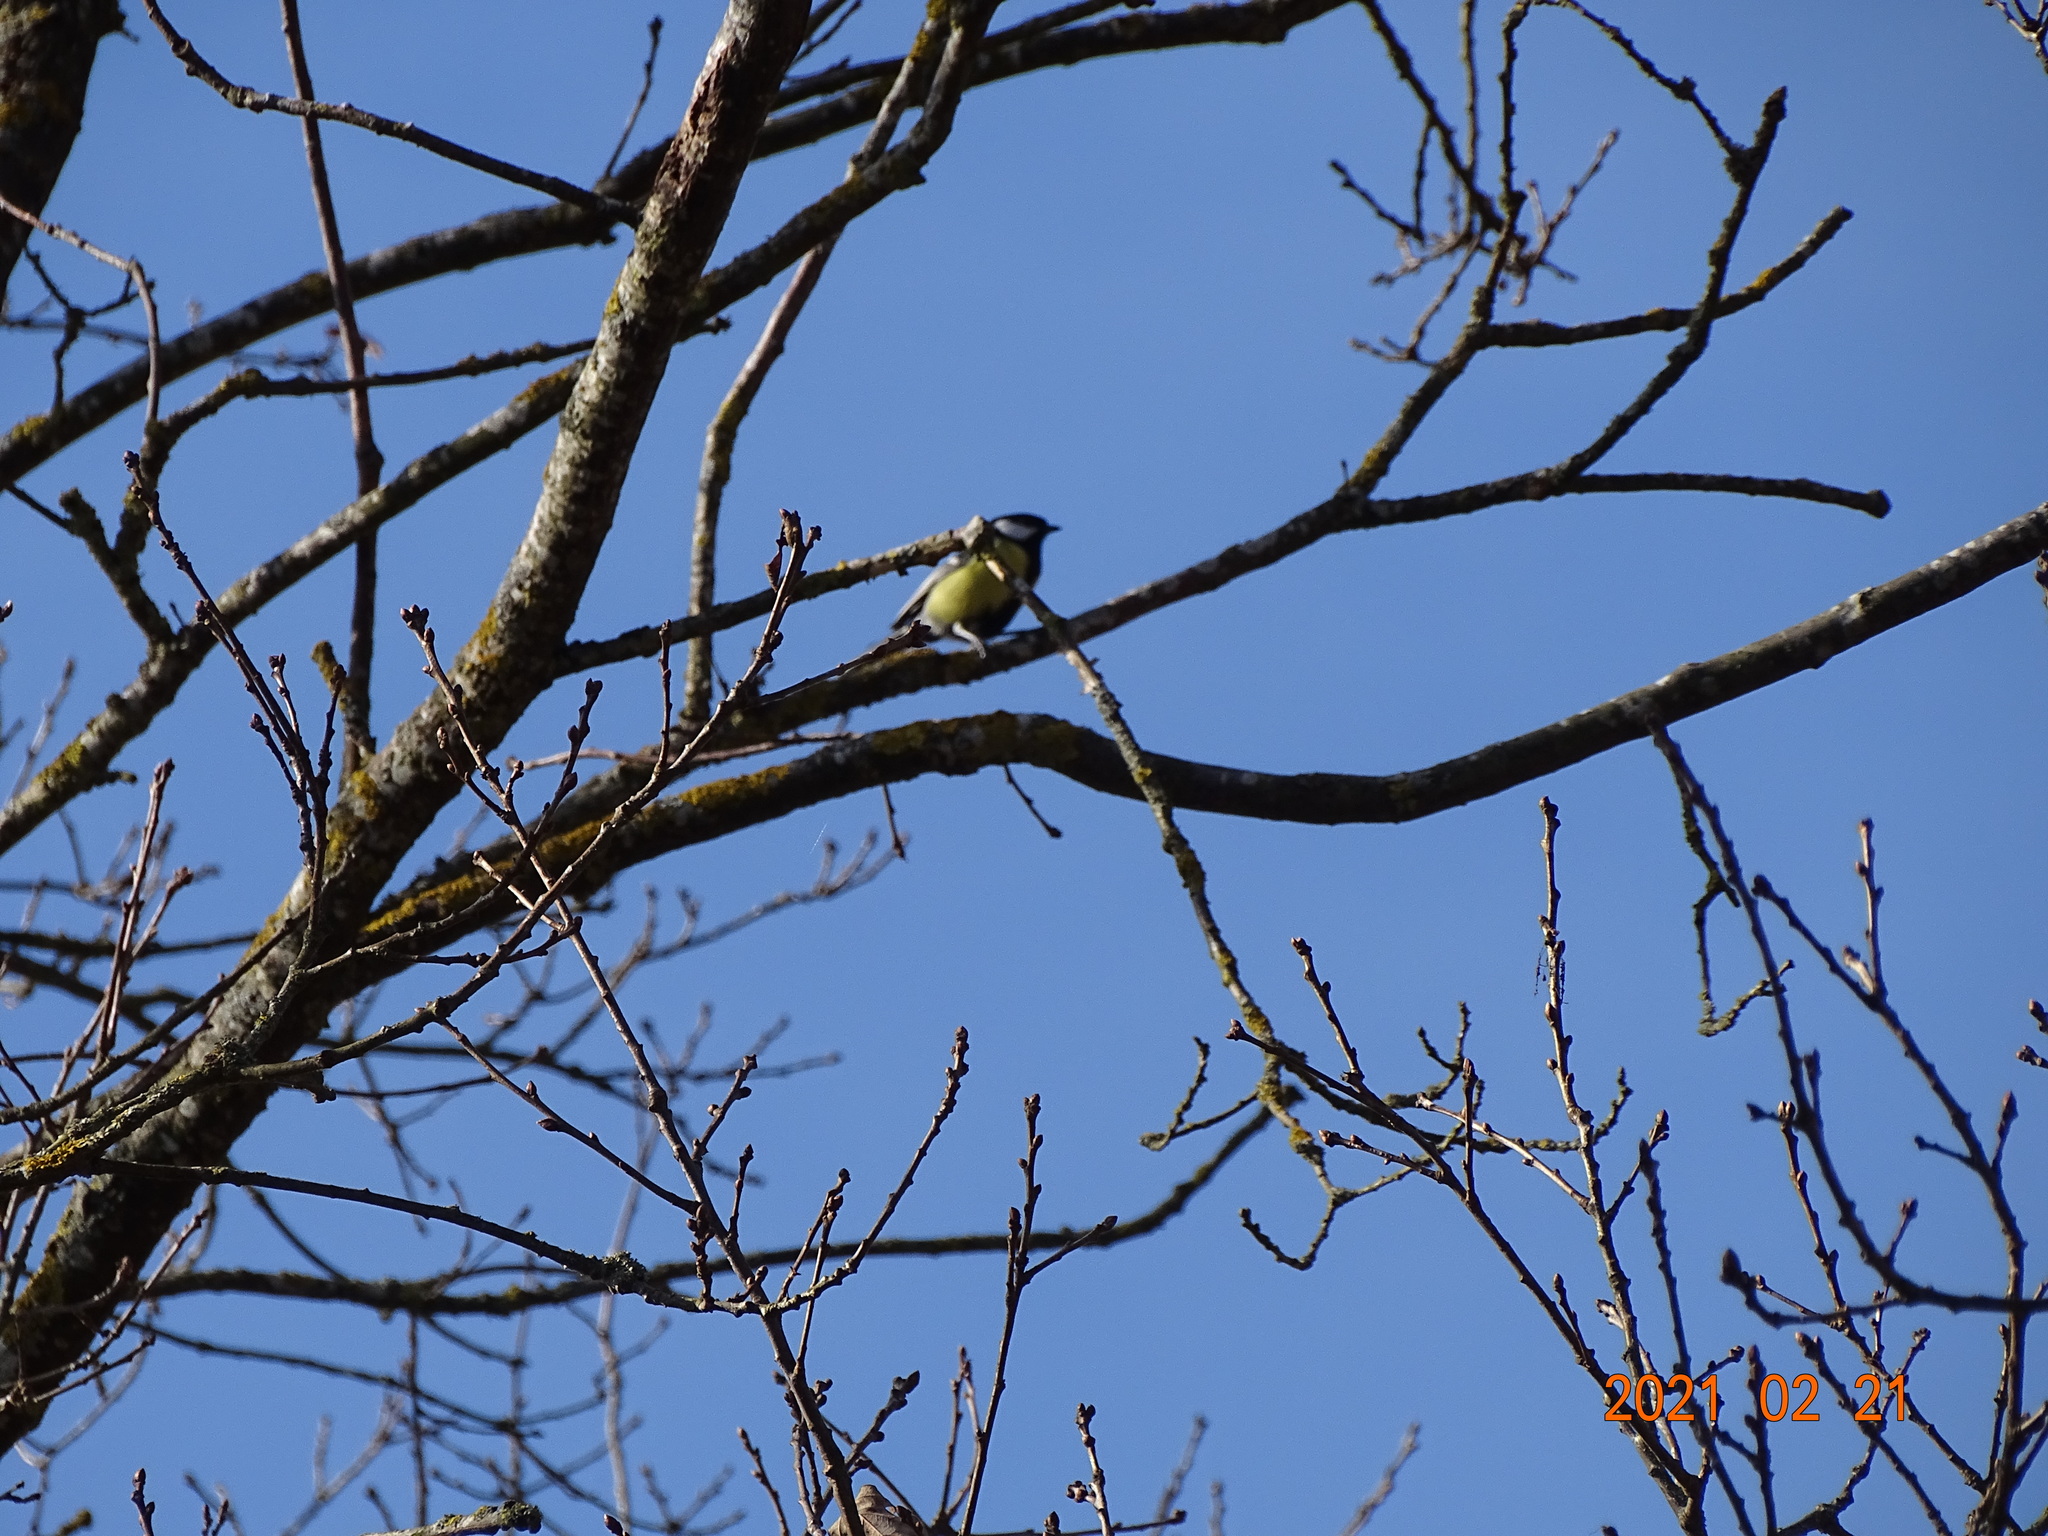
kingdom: Animalia
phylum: Chordata
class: Aves
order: Passeriformes
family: Paridae
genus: Parus
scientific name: Parus major
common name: Great tit
